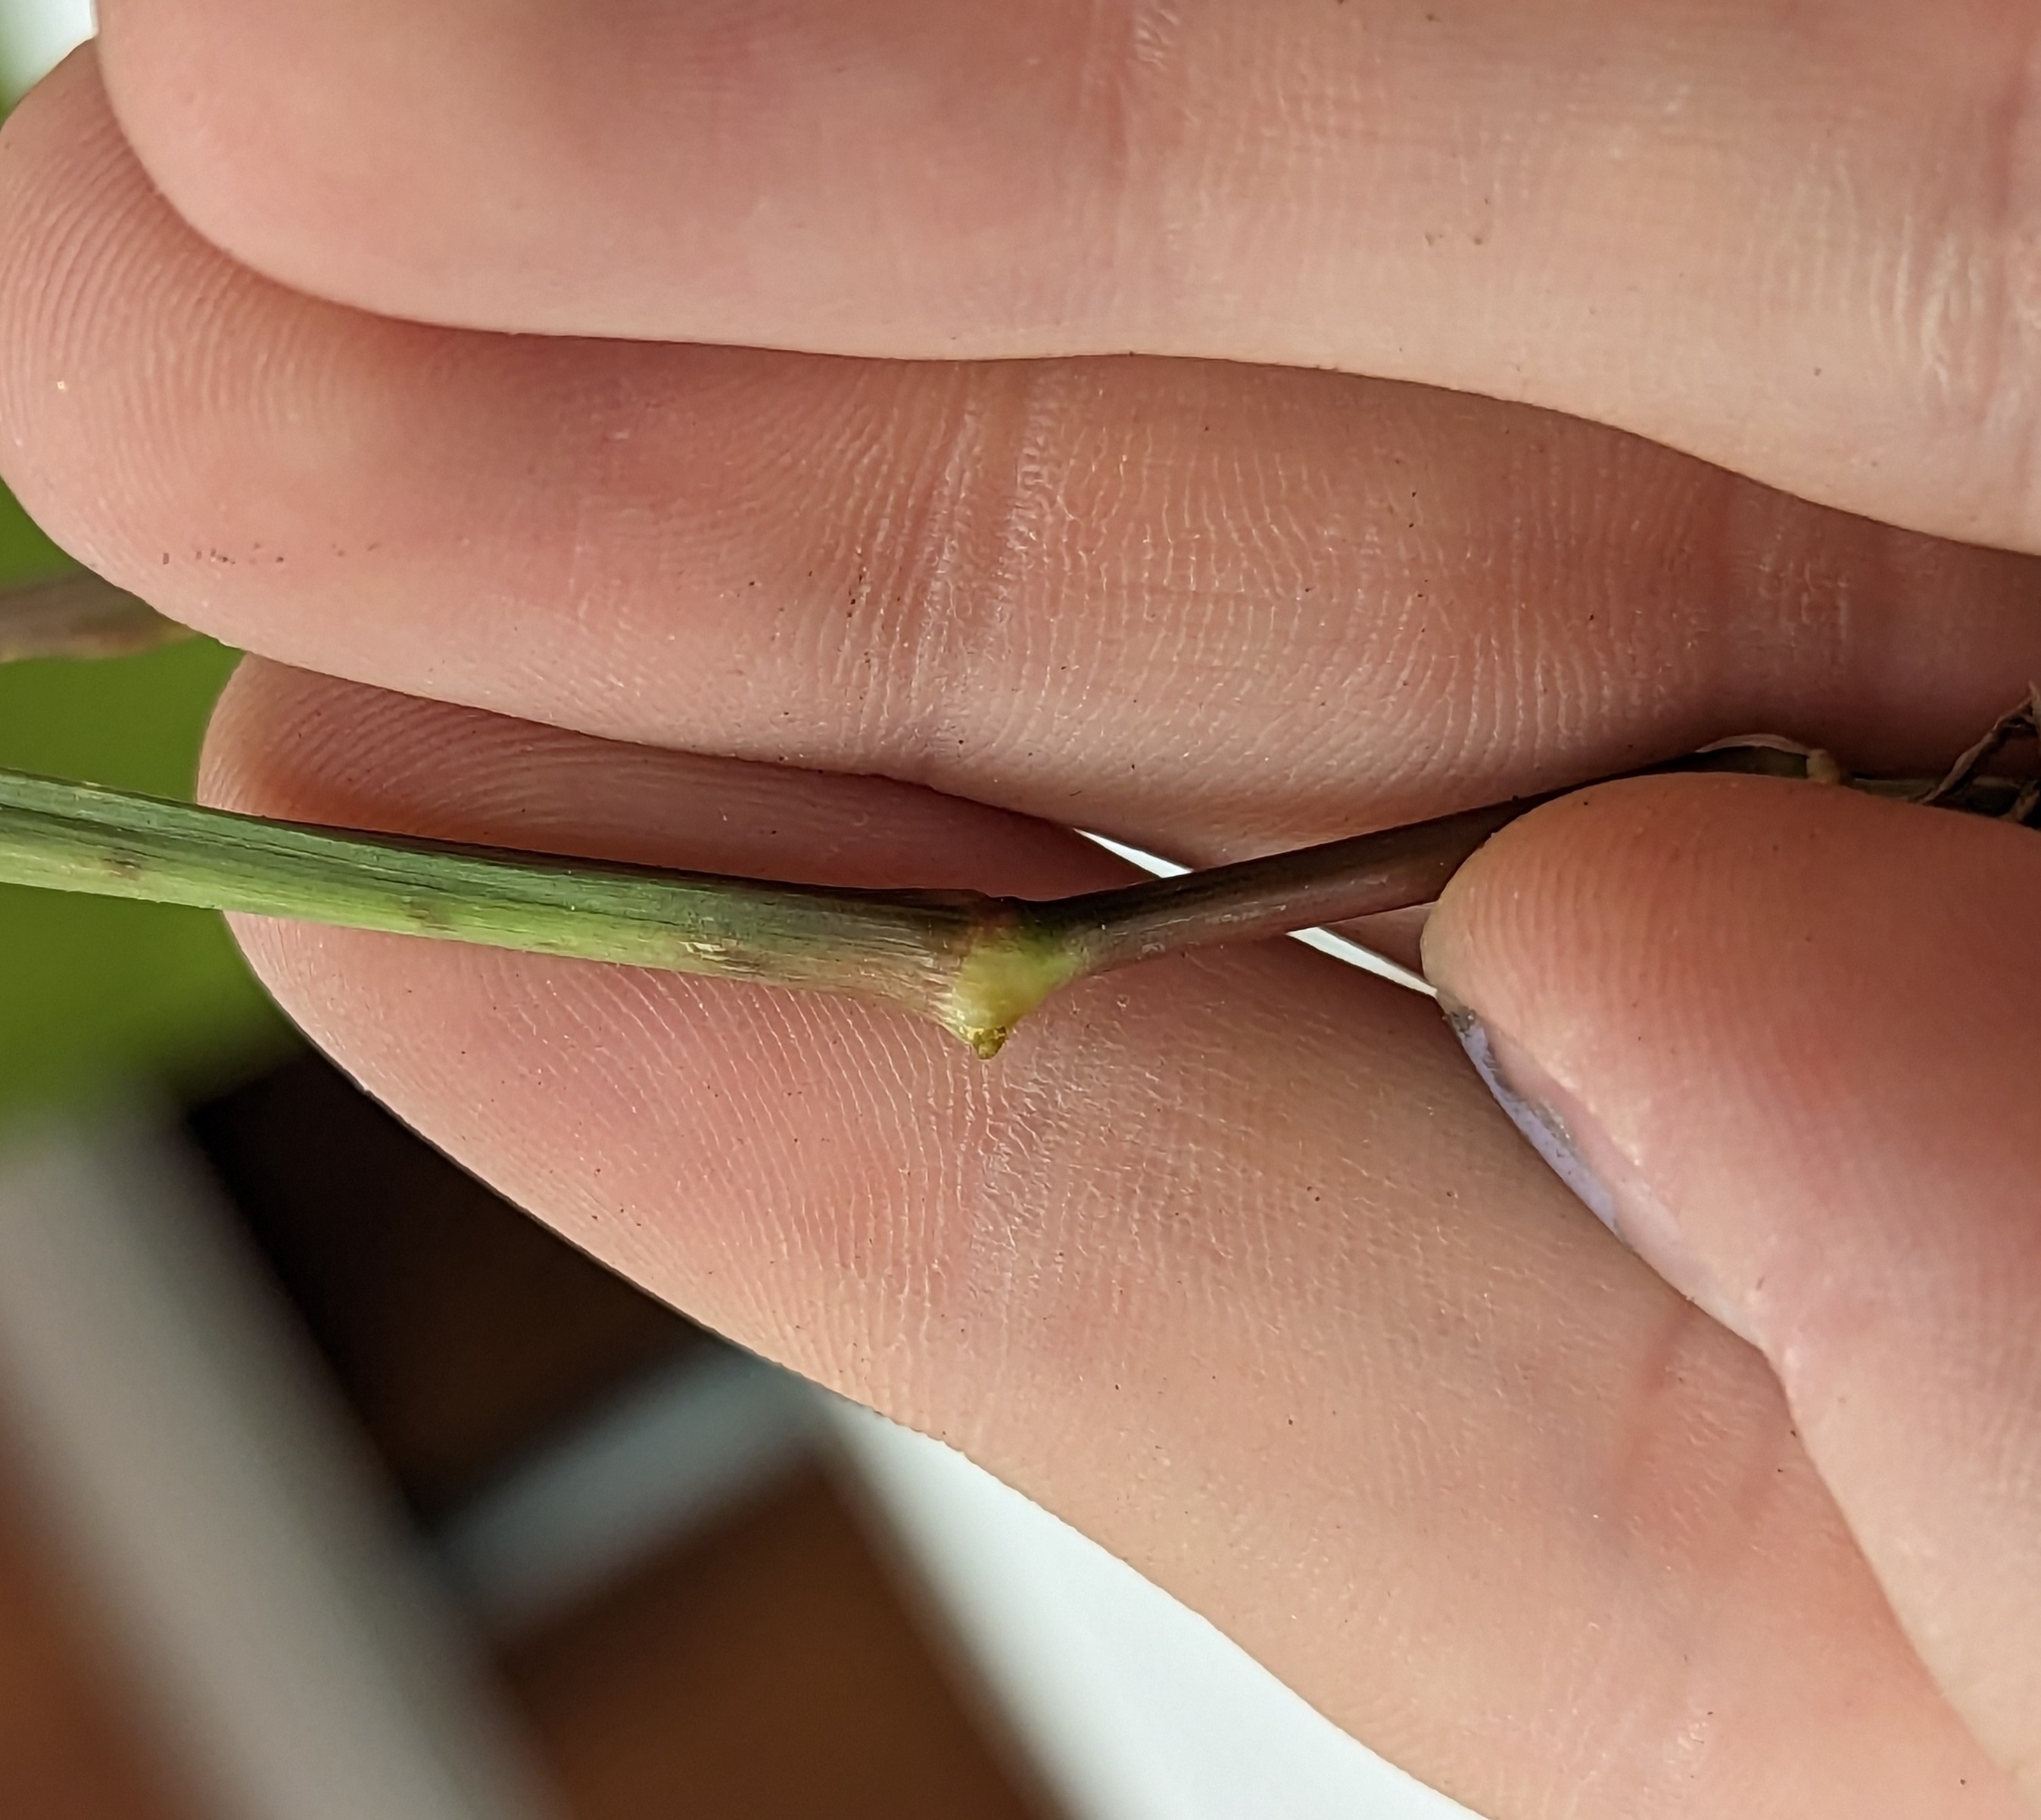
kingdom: Plantae
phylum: Tracheophyta
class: Liliopsida
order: Poales
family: Poaceae
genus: Cenchrus
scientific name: Cenchrus echinatus
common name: Southern sandbur
